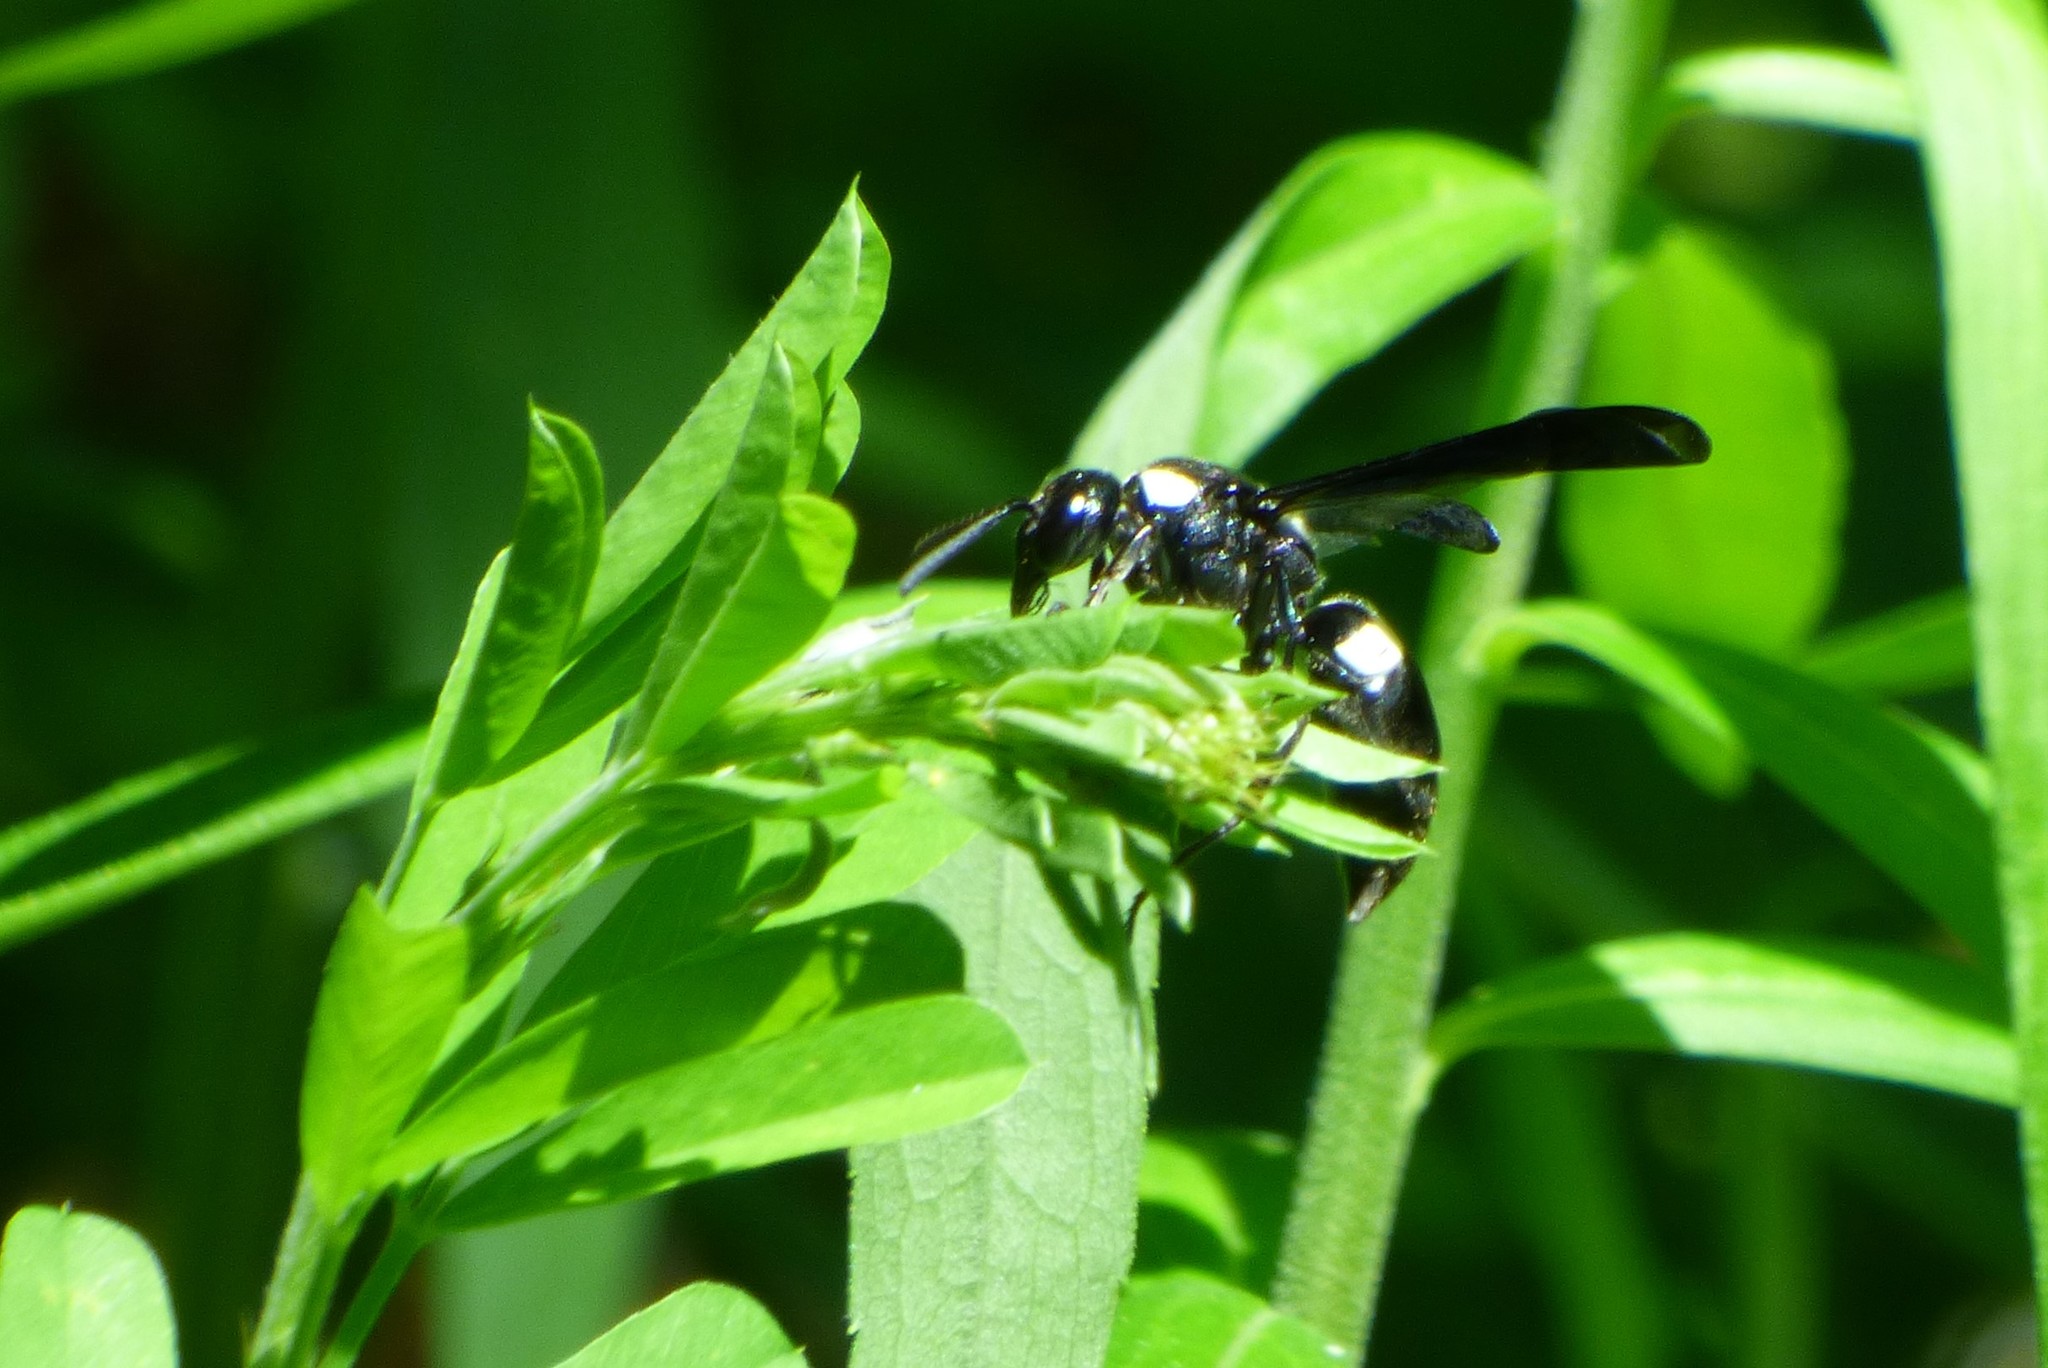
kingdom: Animalia
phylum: Arthropoda
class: Insecta
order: Hymenoptera
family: Eumenidae
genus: Monobia
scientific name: Monobia quadridens
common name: Four-toothed mason wasp
